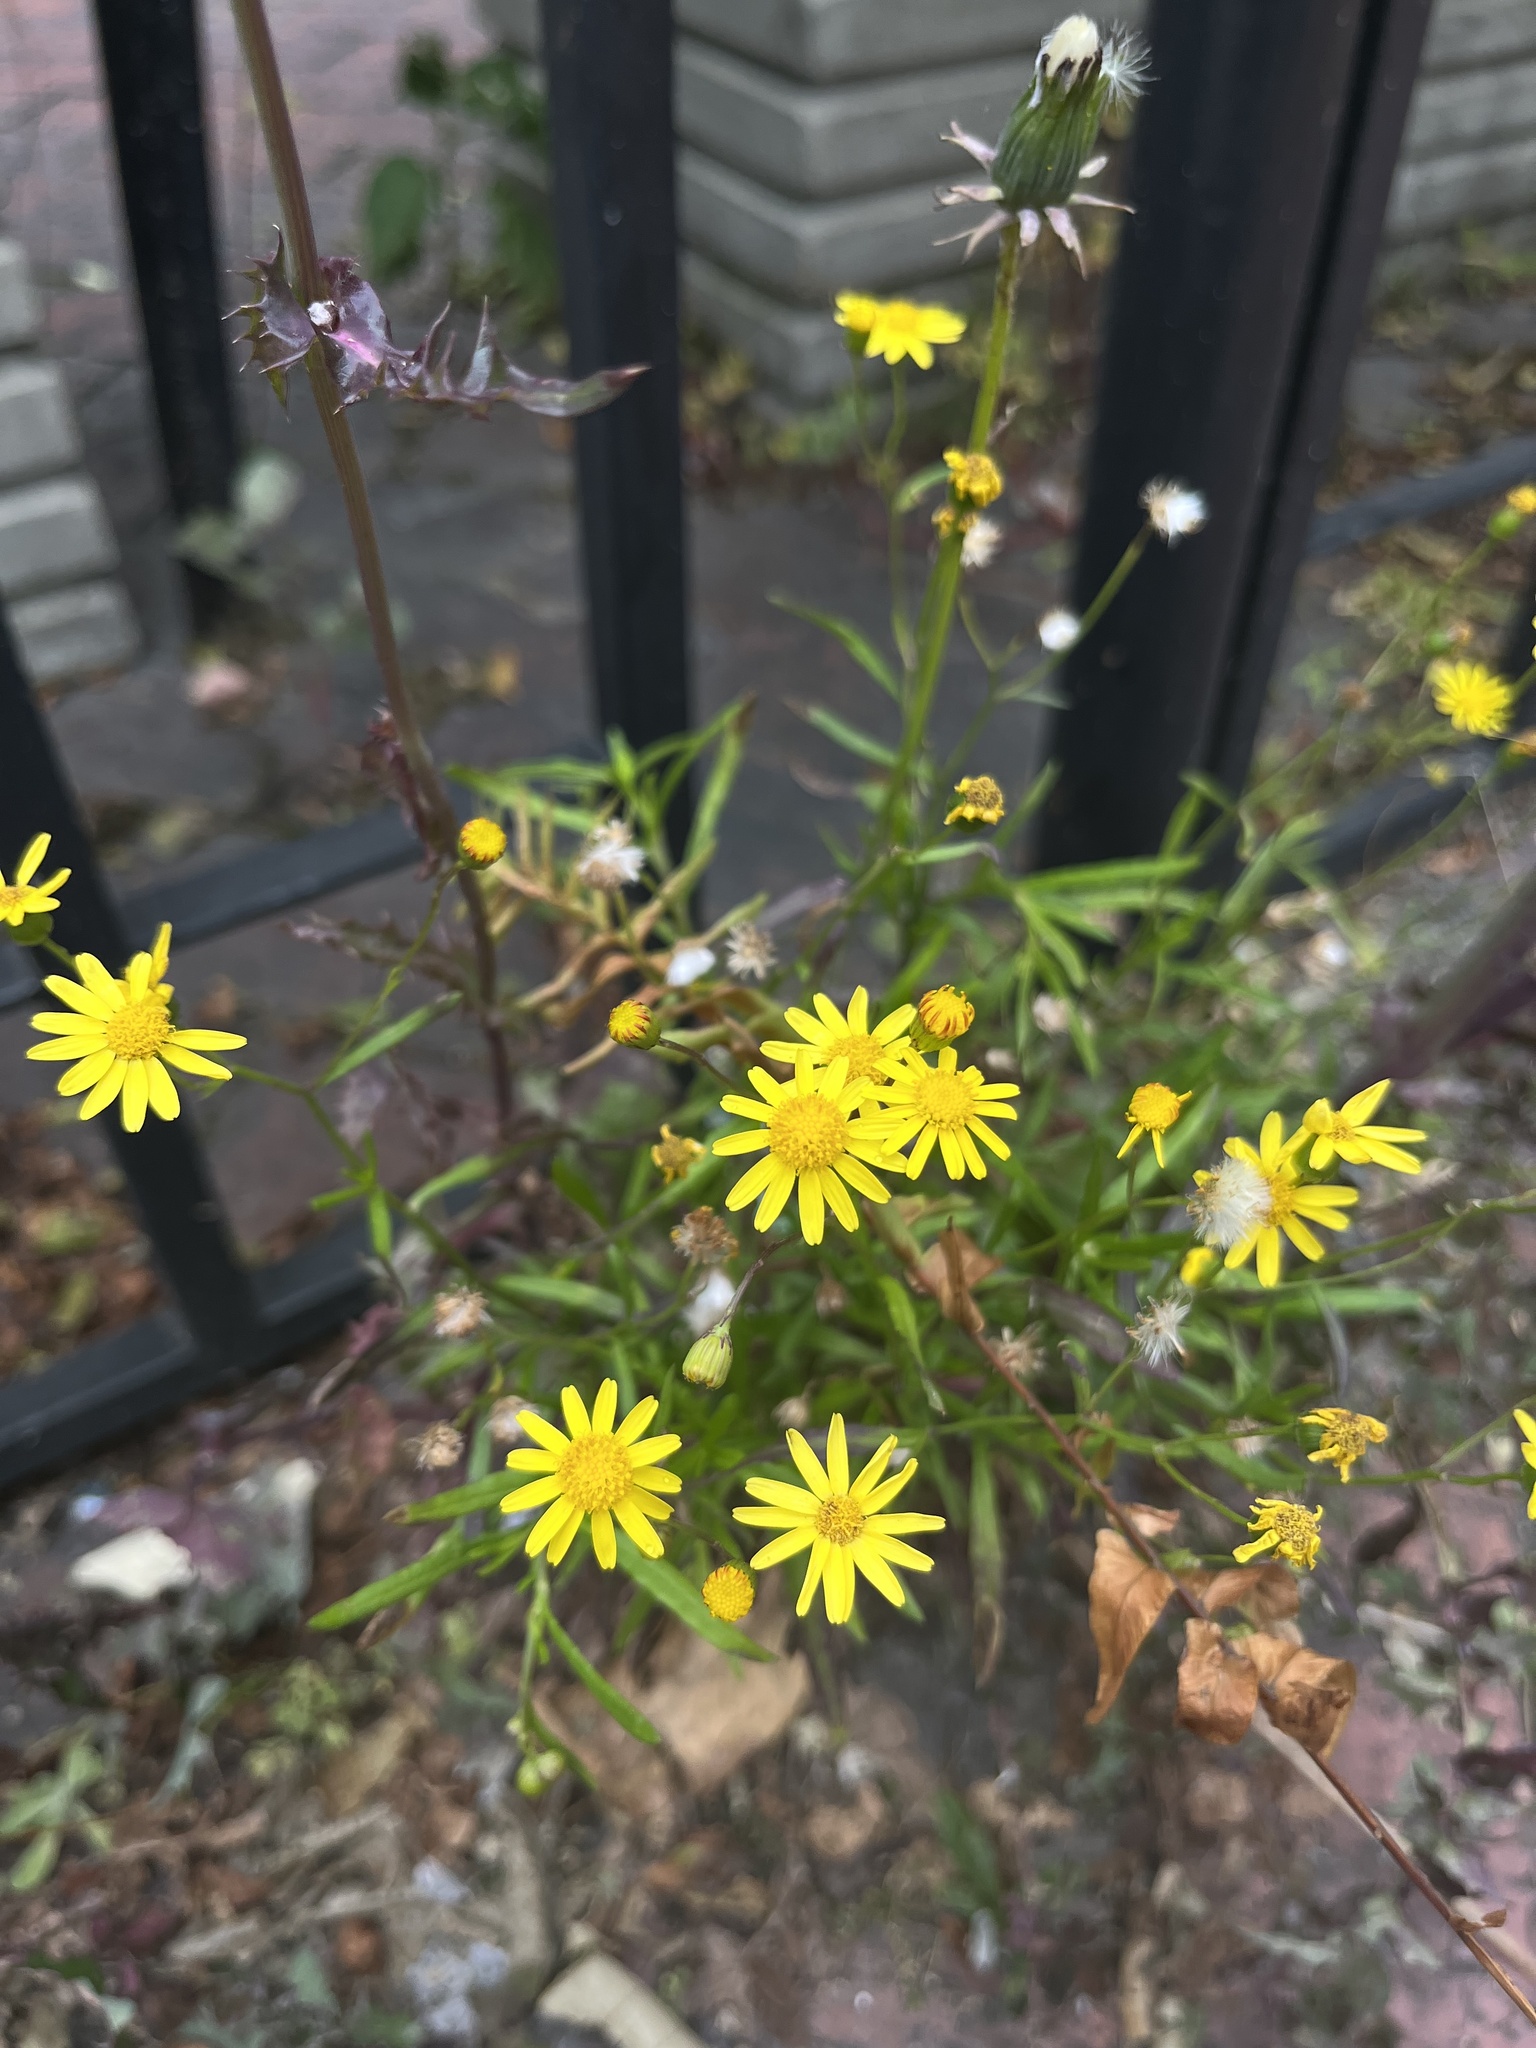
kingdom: Plantae
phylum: Tracheophyta
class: Magnoliopsida
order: Asterales
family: Asteraceae
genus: Senecio
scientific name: Senecio madagascariensis
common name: Madagascar ragwort
